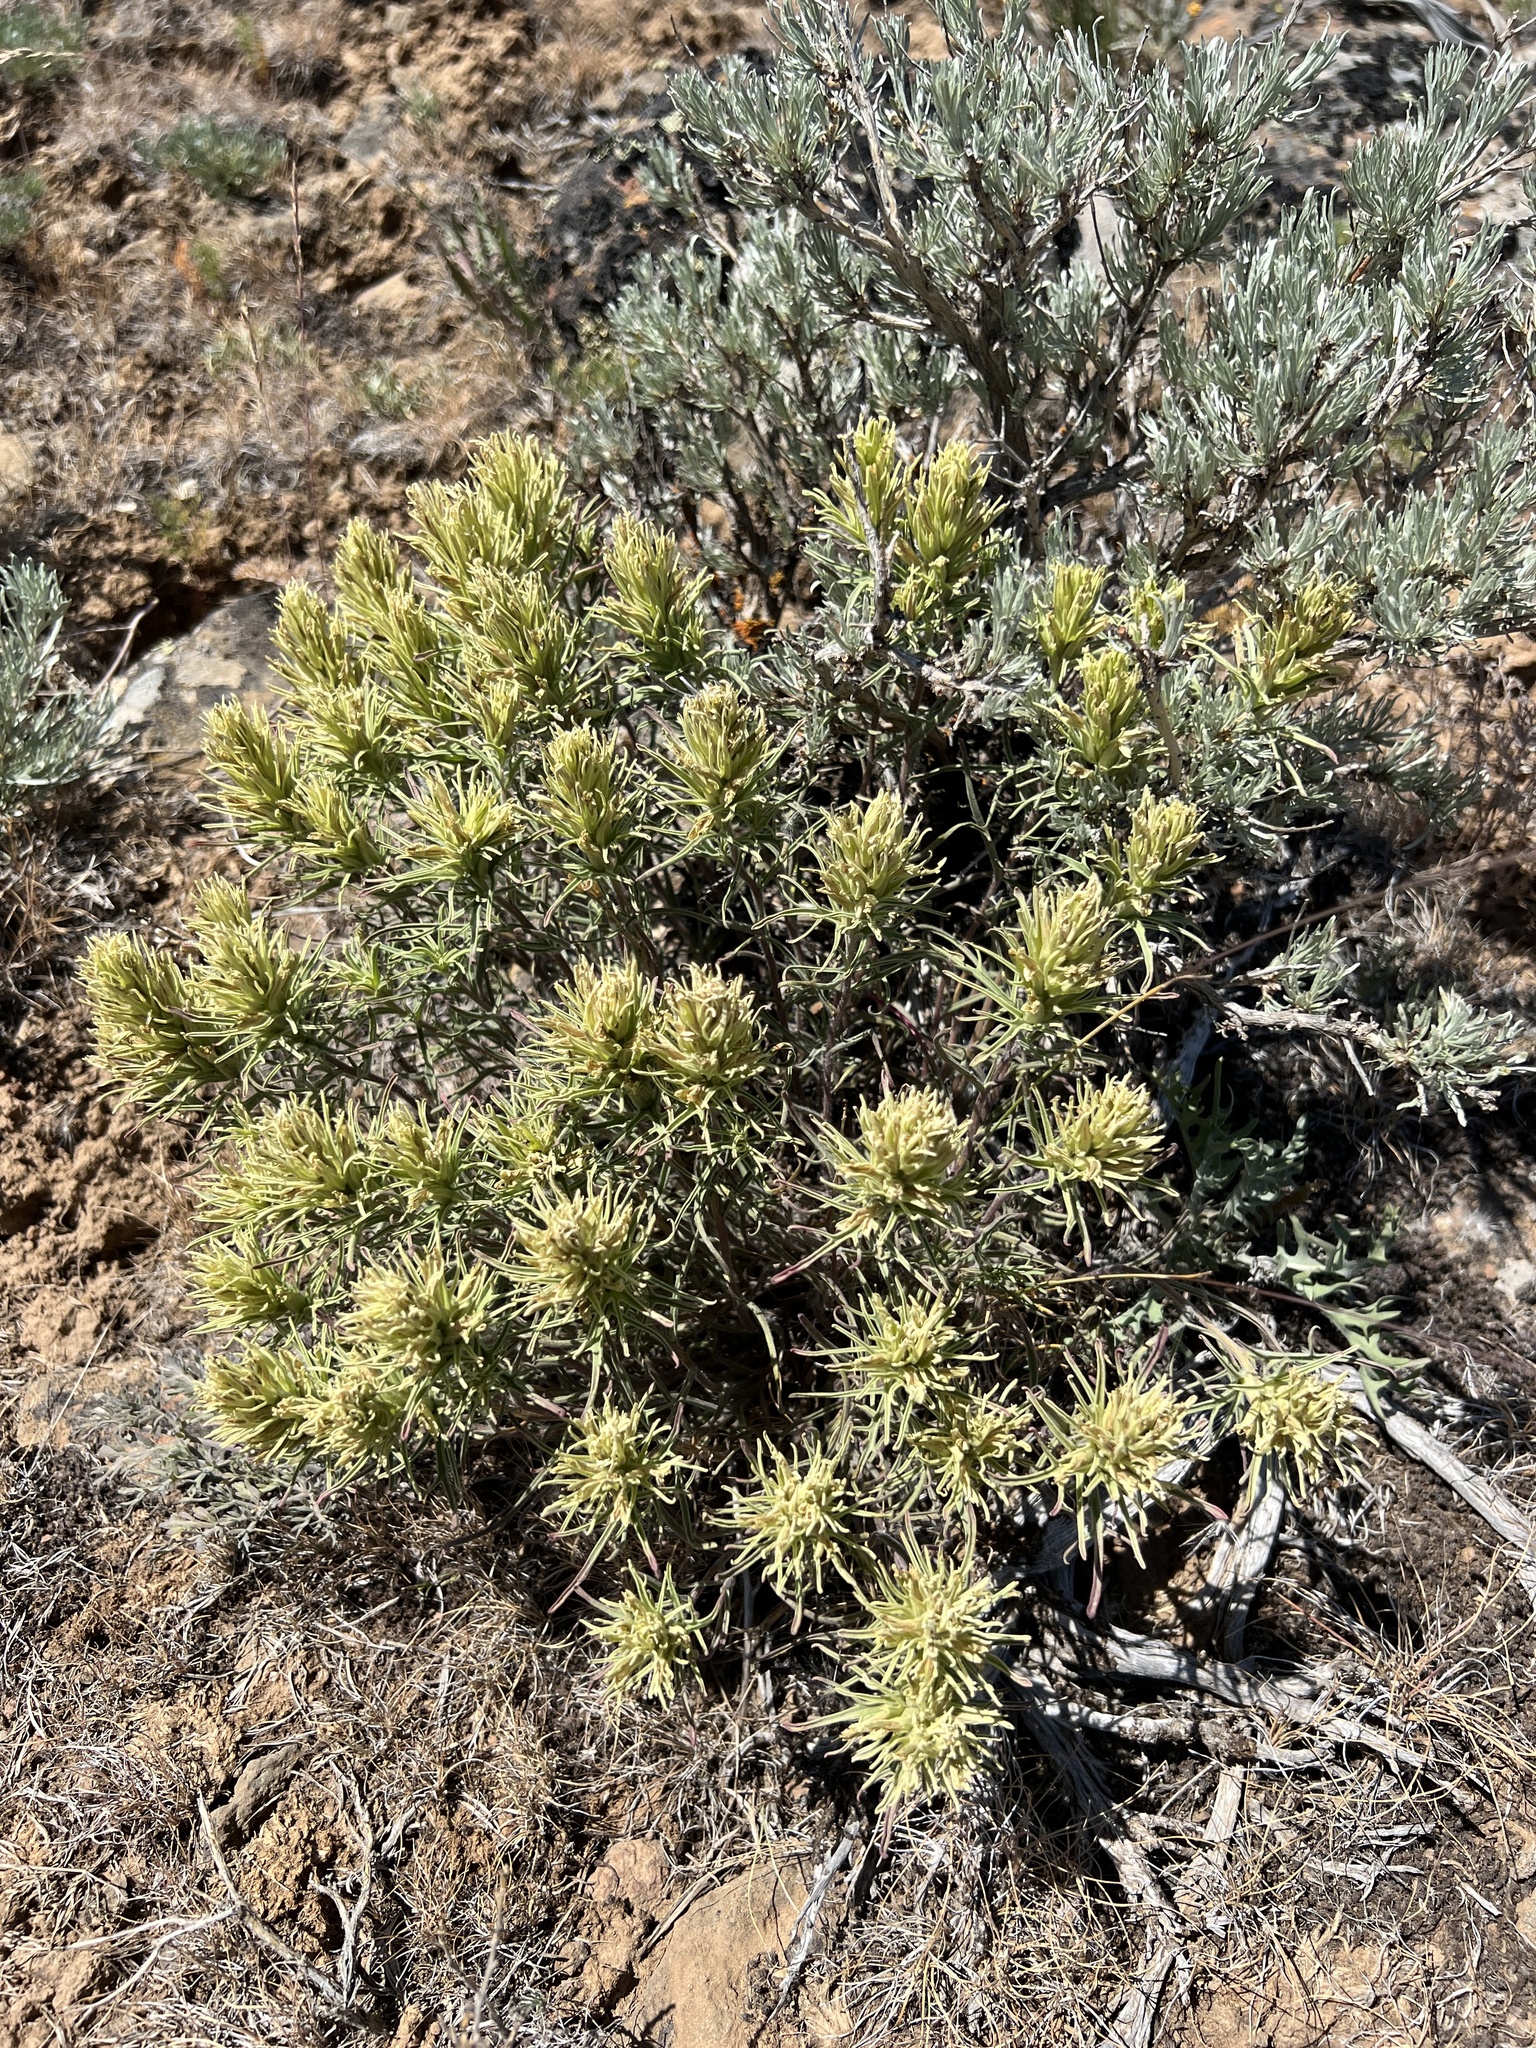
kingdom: Plantae
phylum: Tracheophyta
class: Magnoliopsida
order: Lamiales
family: Orobanchaceae
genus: Castilleja
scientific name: Castilleja thompsonii
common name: Thompson's paintbrush
